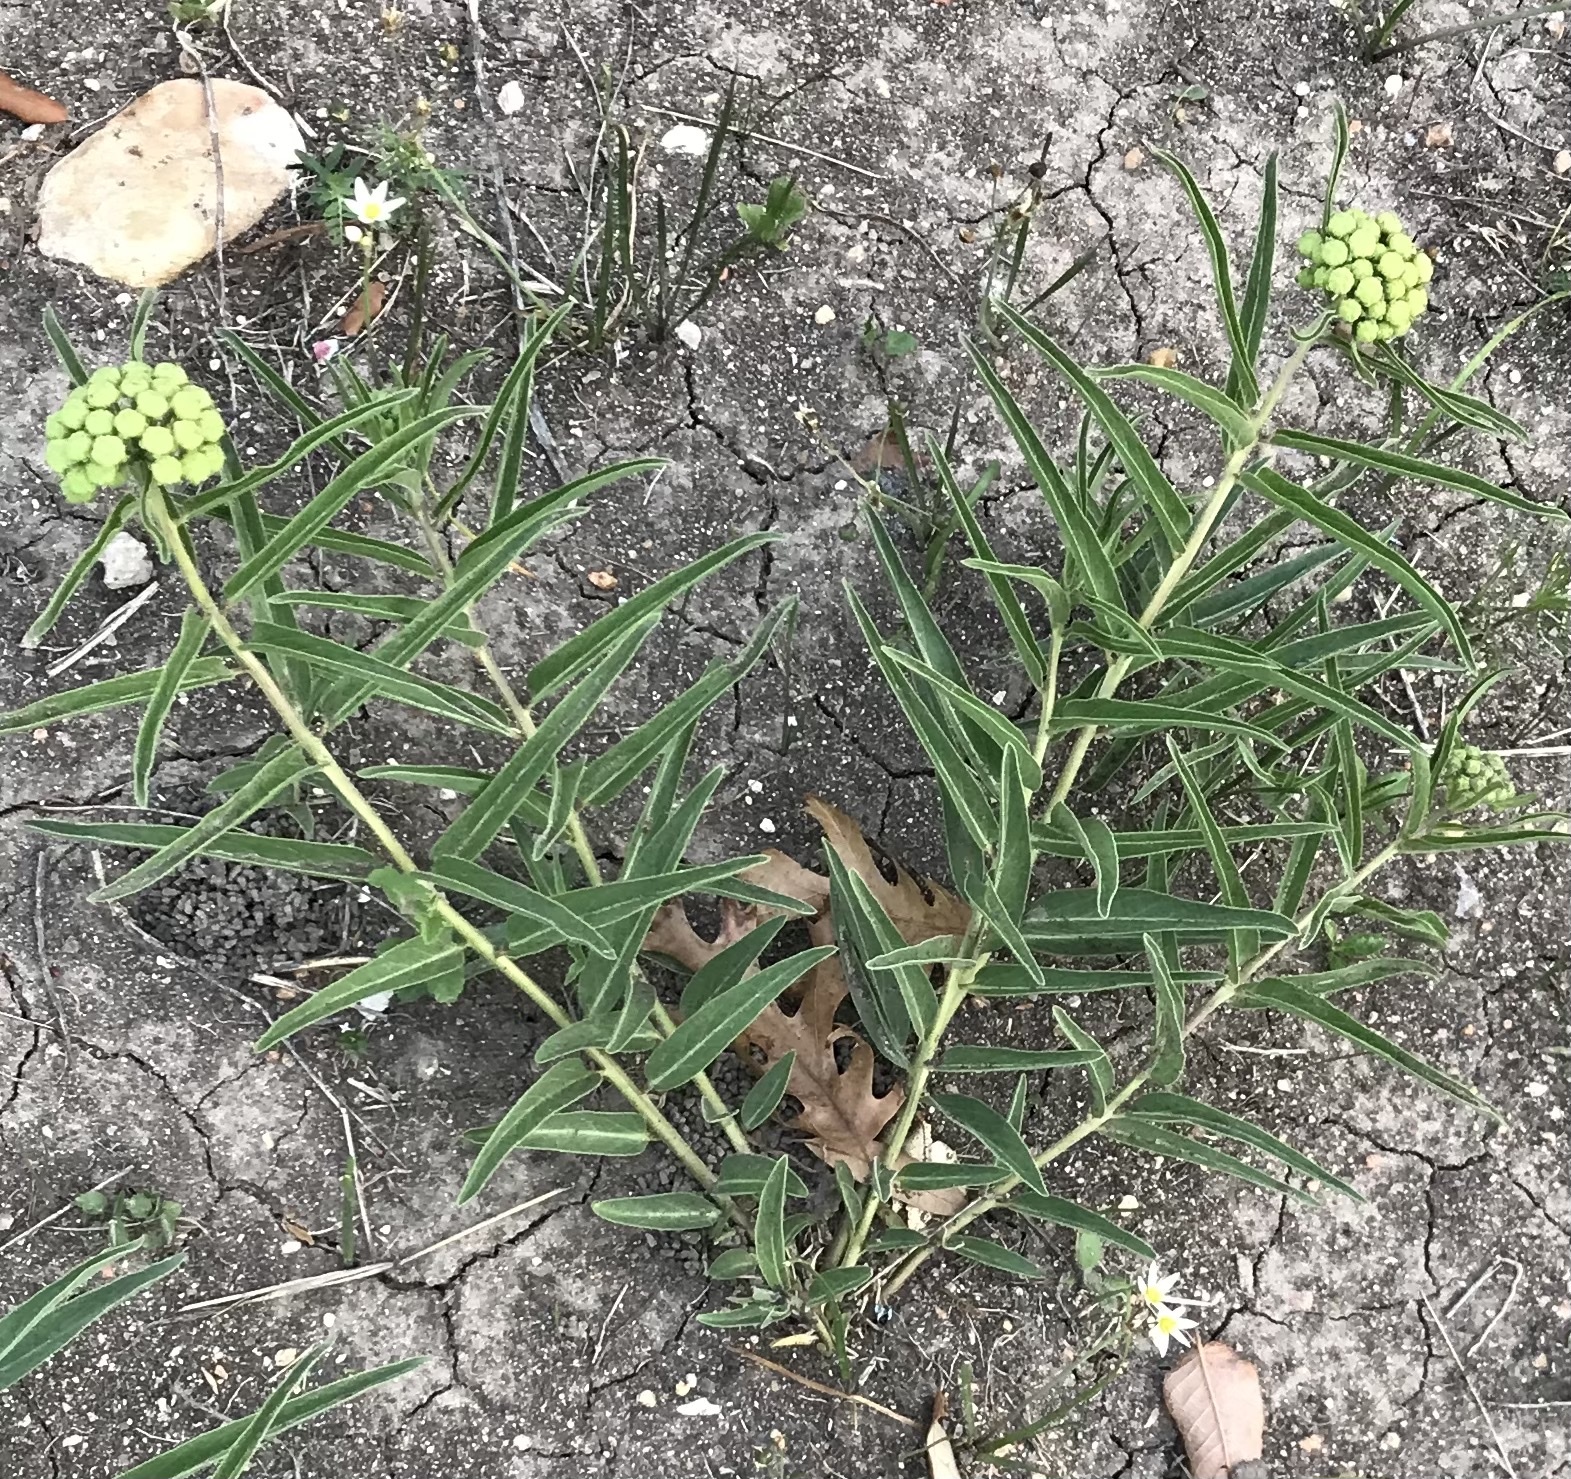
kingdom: Plantae
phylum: Tracheophyta
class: Magnoliopsida
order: Gentianales
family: Apocynaceae
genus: Asclepias
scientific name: Asclepias asperula
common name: Antelope horns
